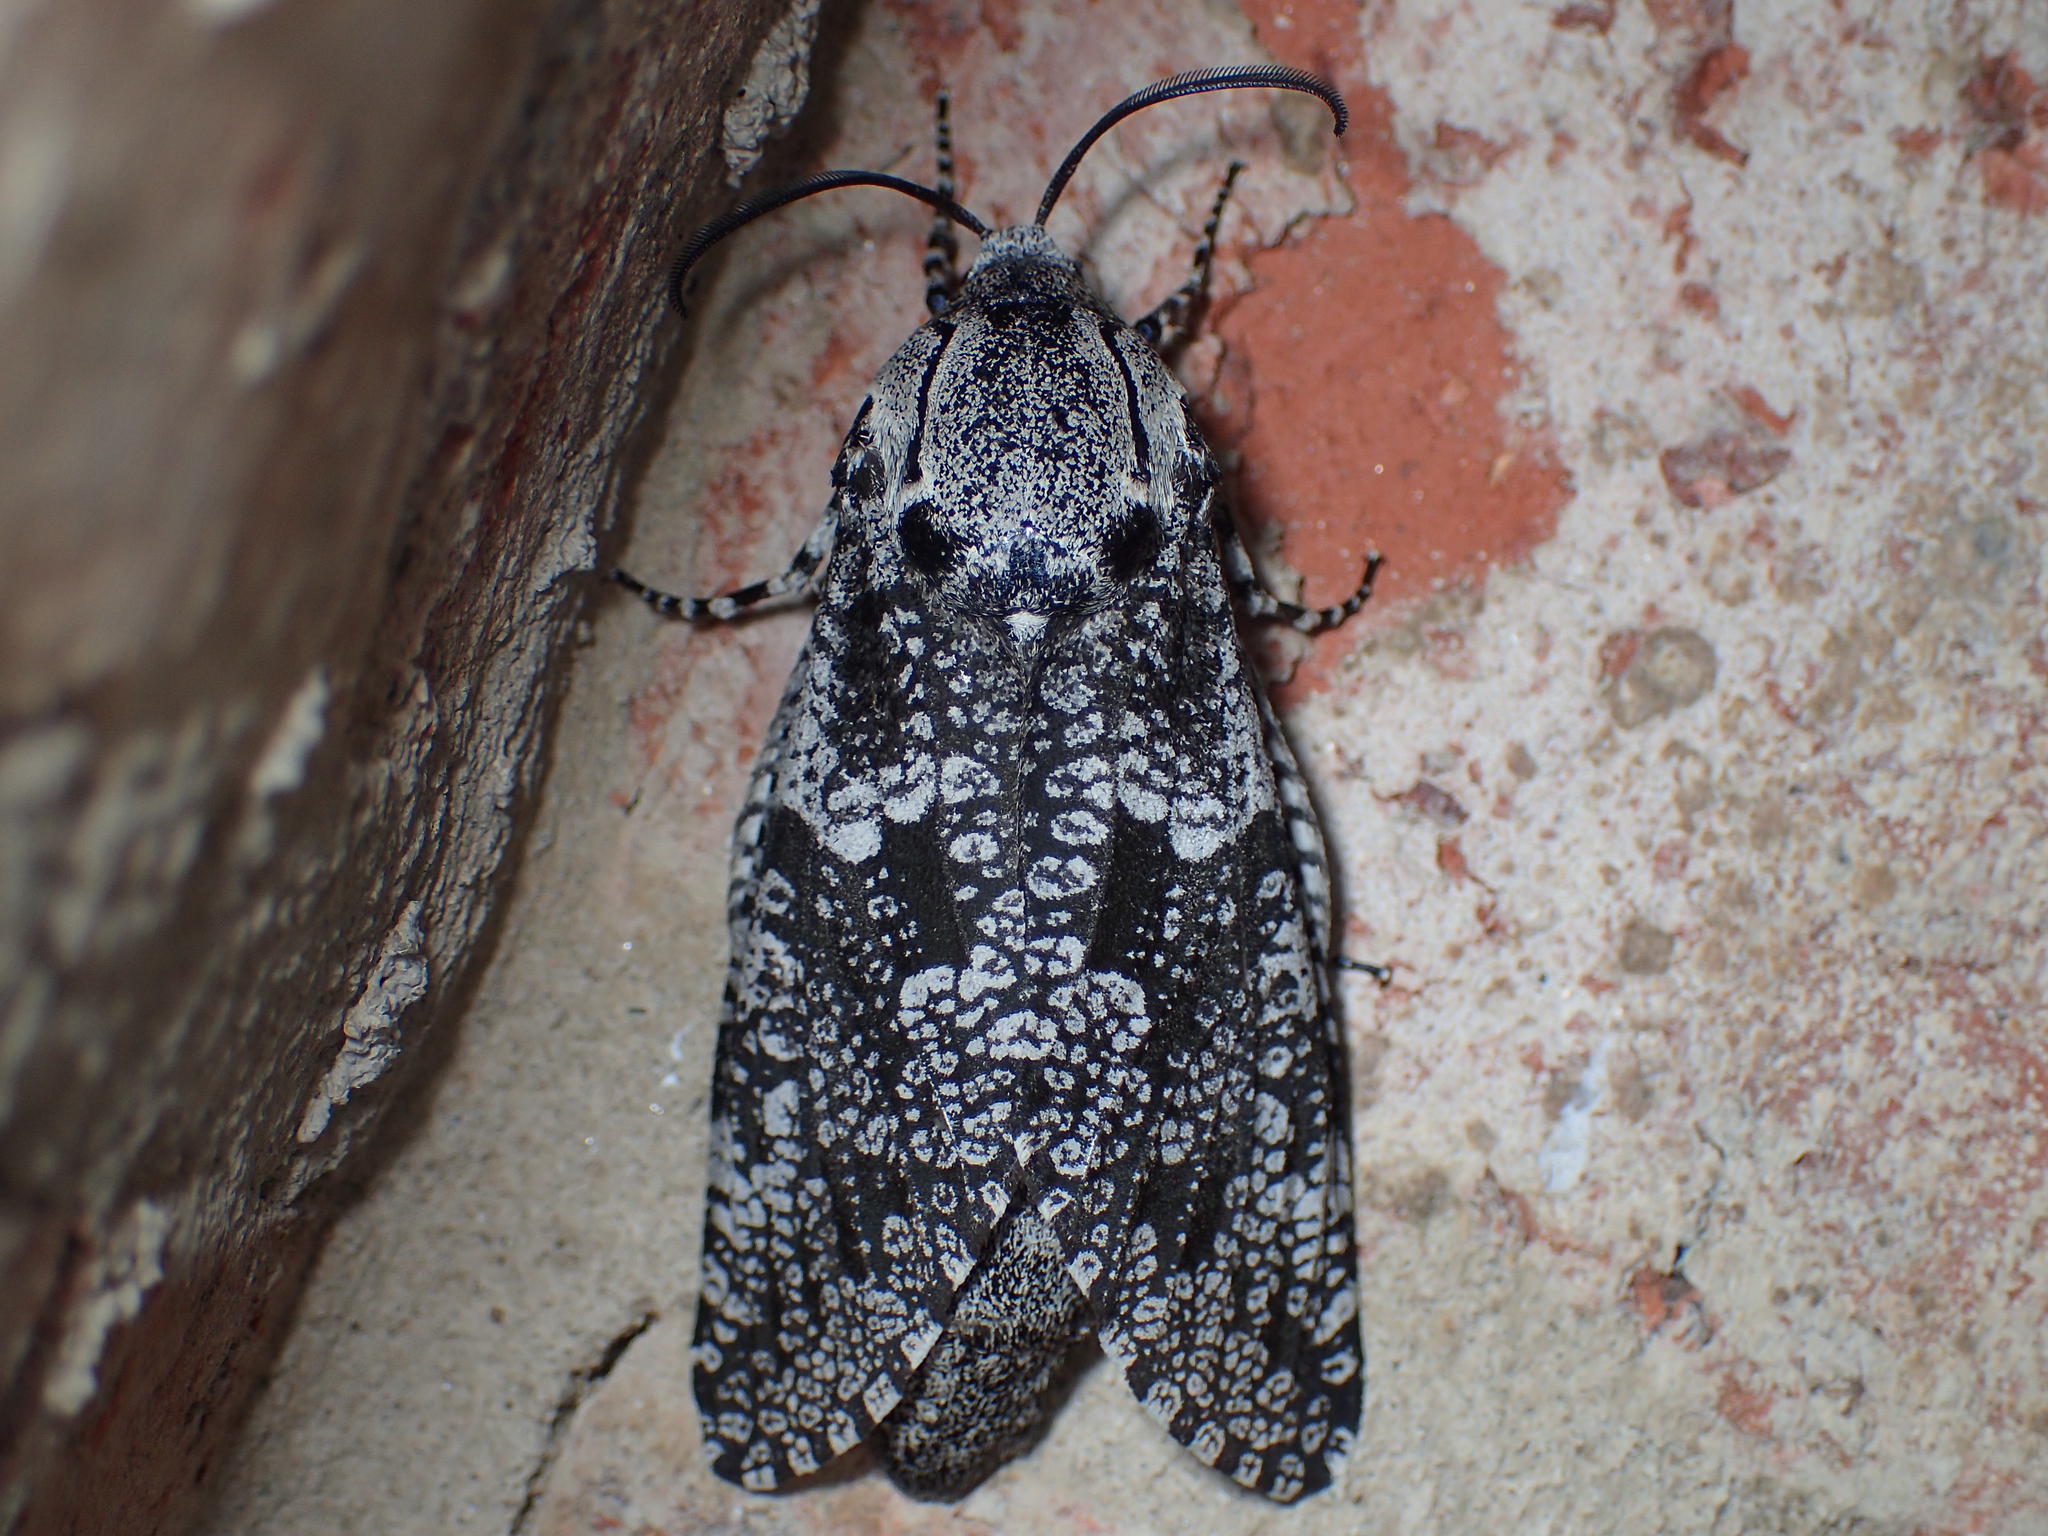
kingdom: Animalia
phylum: Arthropoda
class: Insecta
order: Lepidoptera
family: Cossidae
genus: Prionoxystus
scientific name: Prionoxystus robiniae
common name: Carpenterworm
